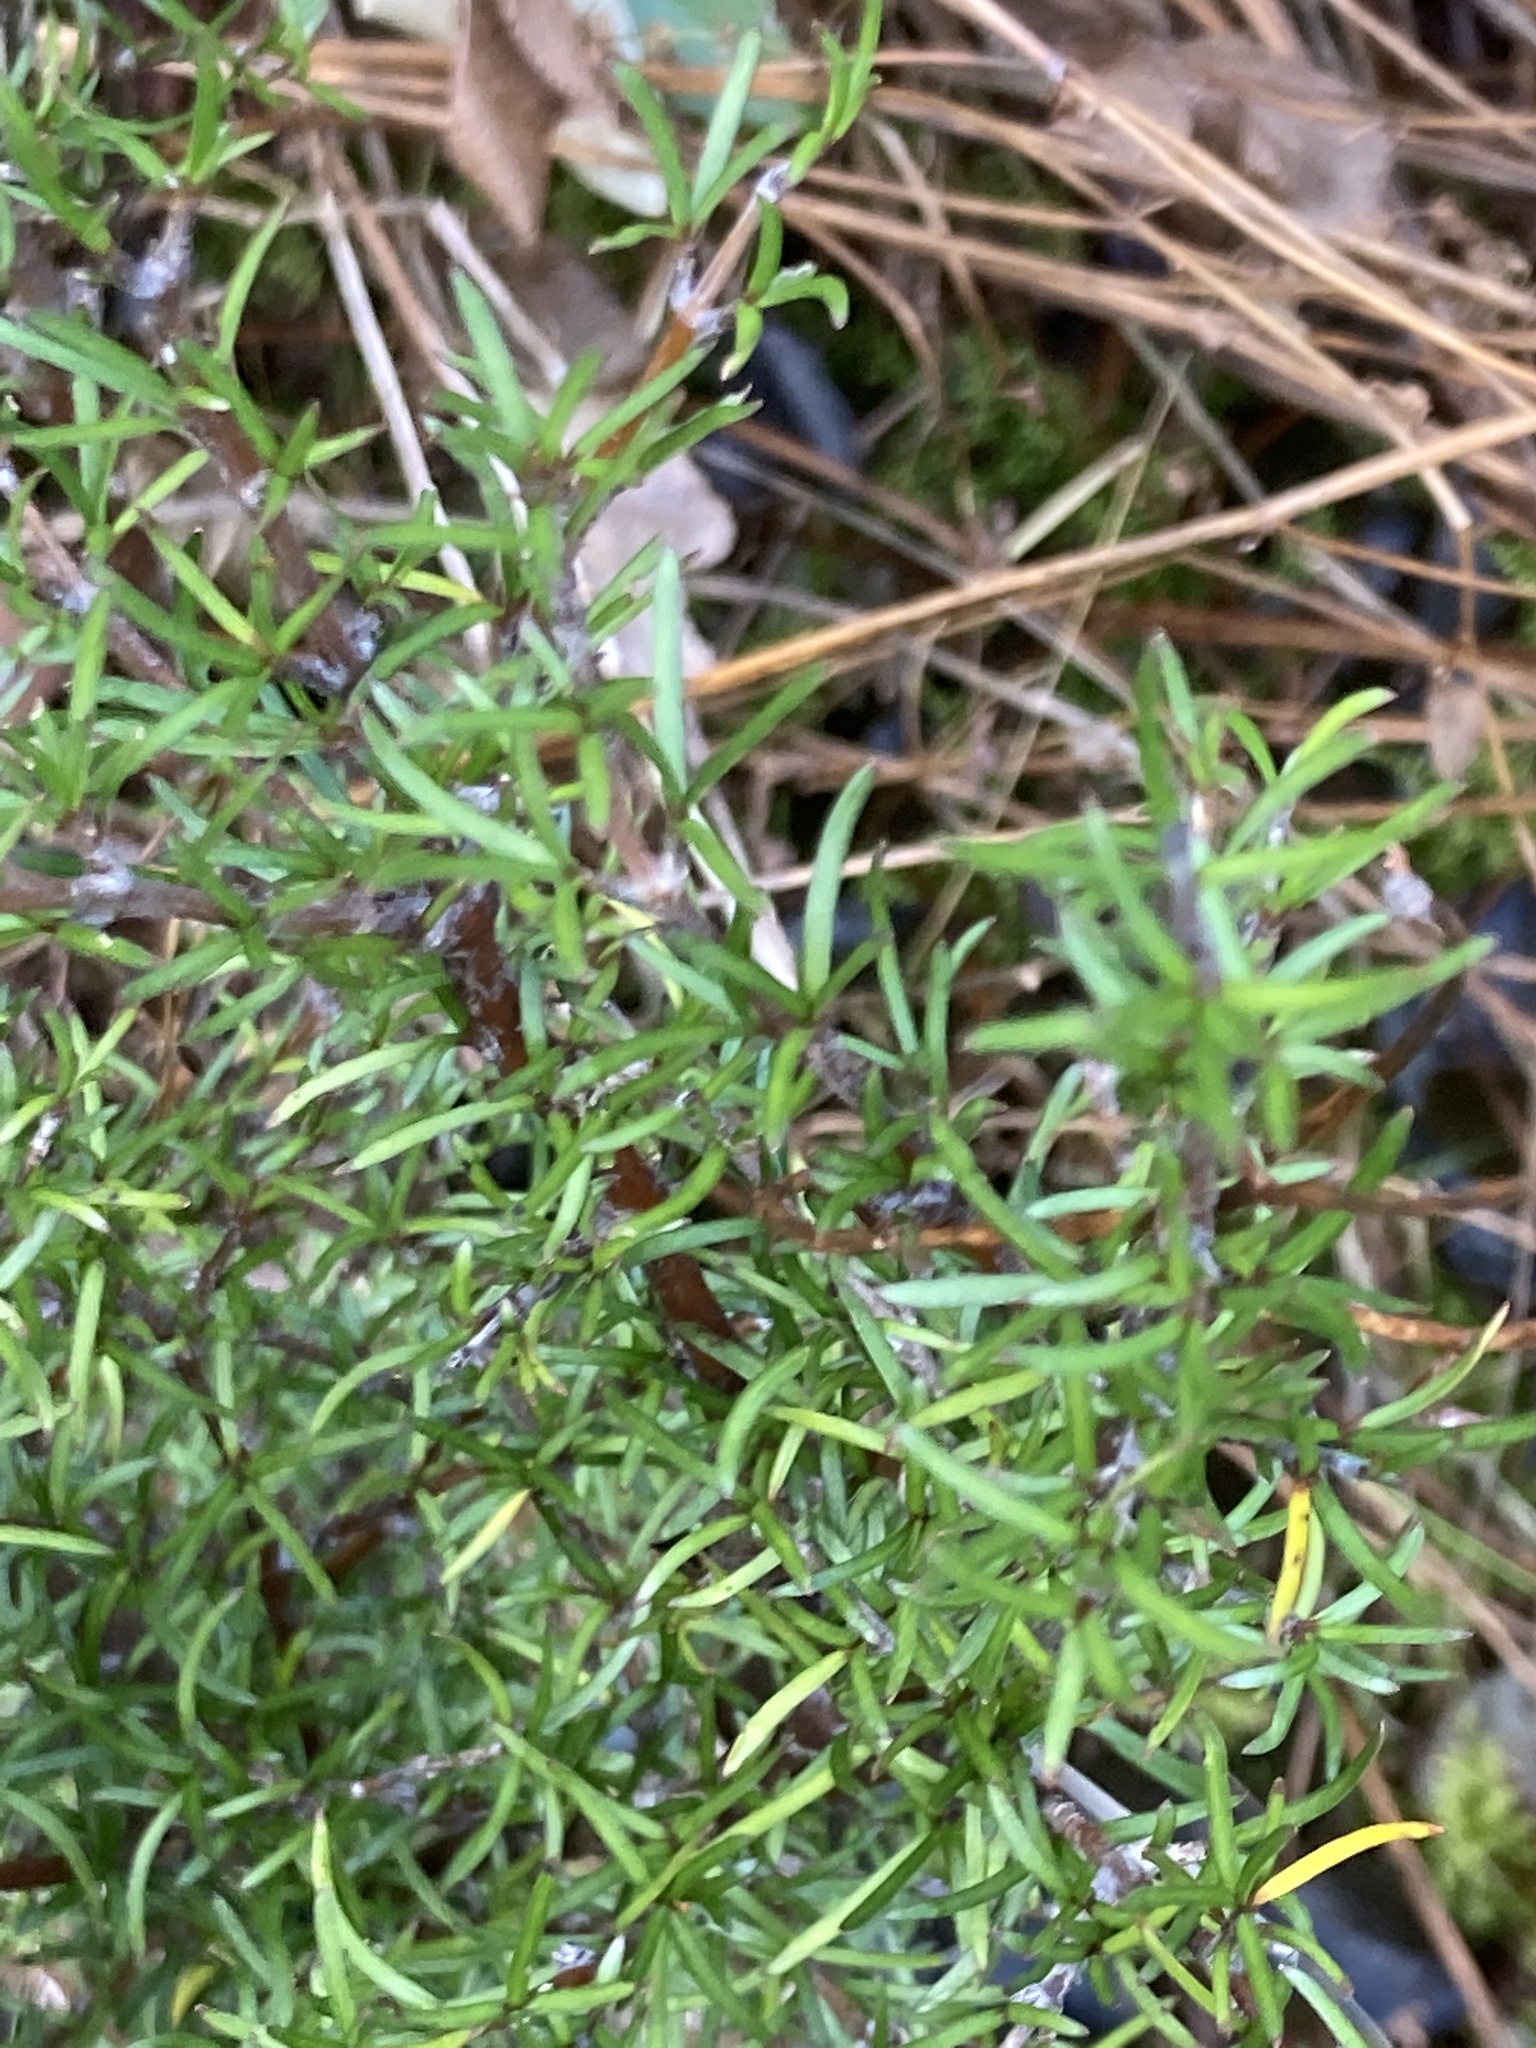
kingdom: Plantae
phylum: Tracheophyta
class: Magnoliopsida
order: Gentianales
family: Rubiaceae
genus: Coprosma
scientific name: Coprosma rugosa
